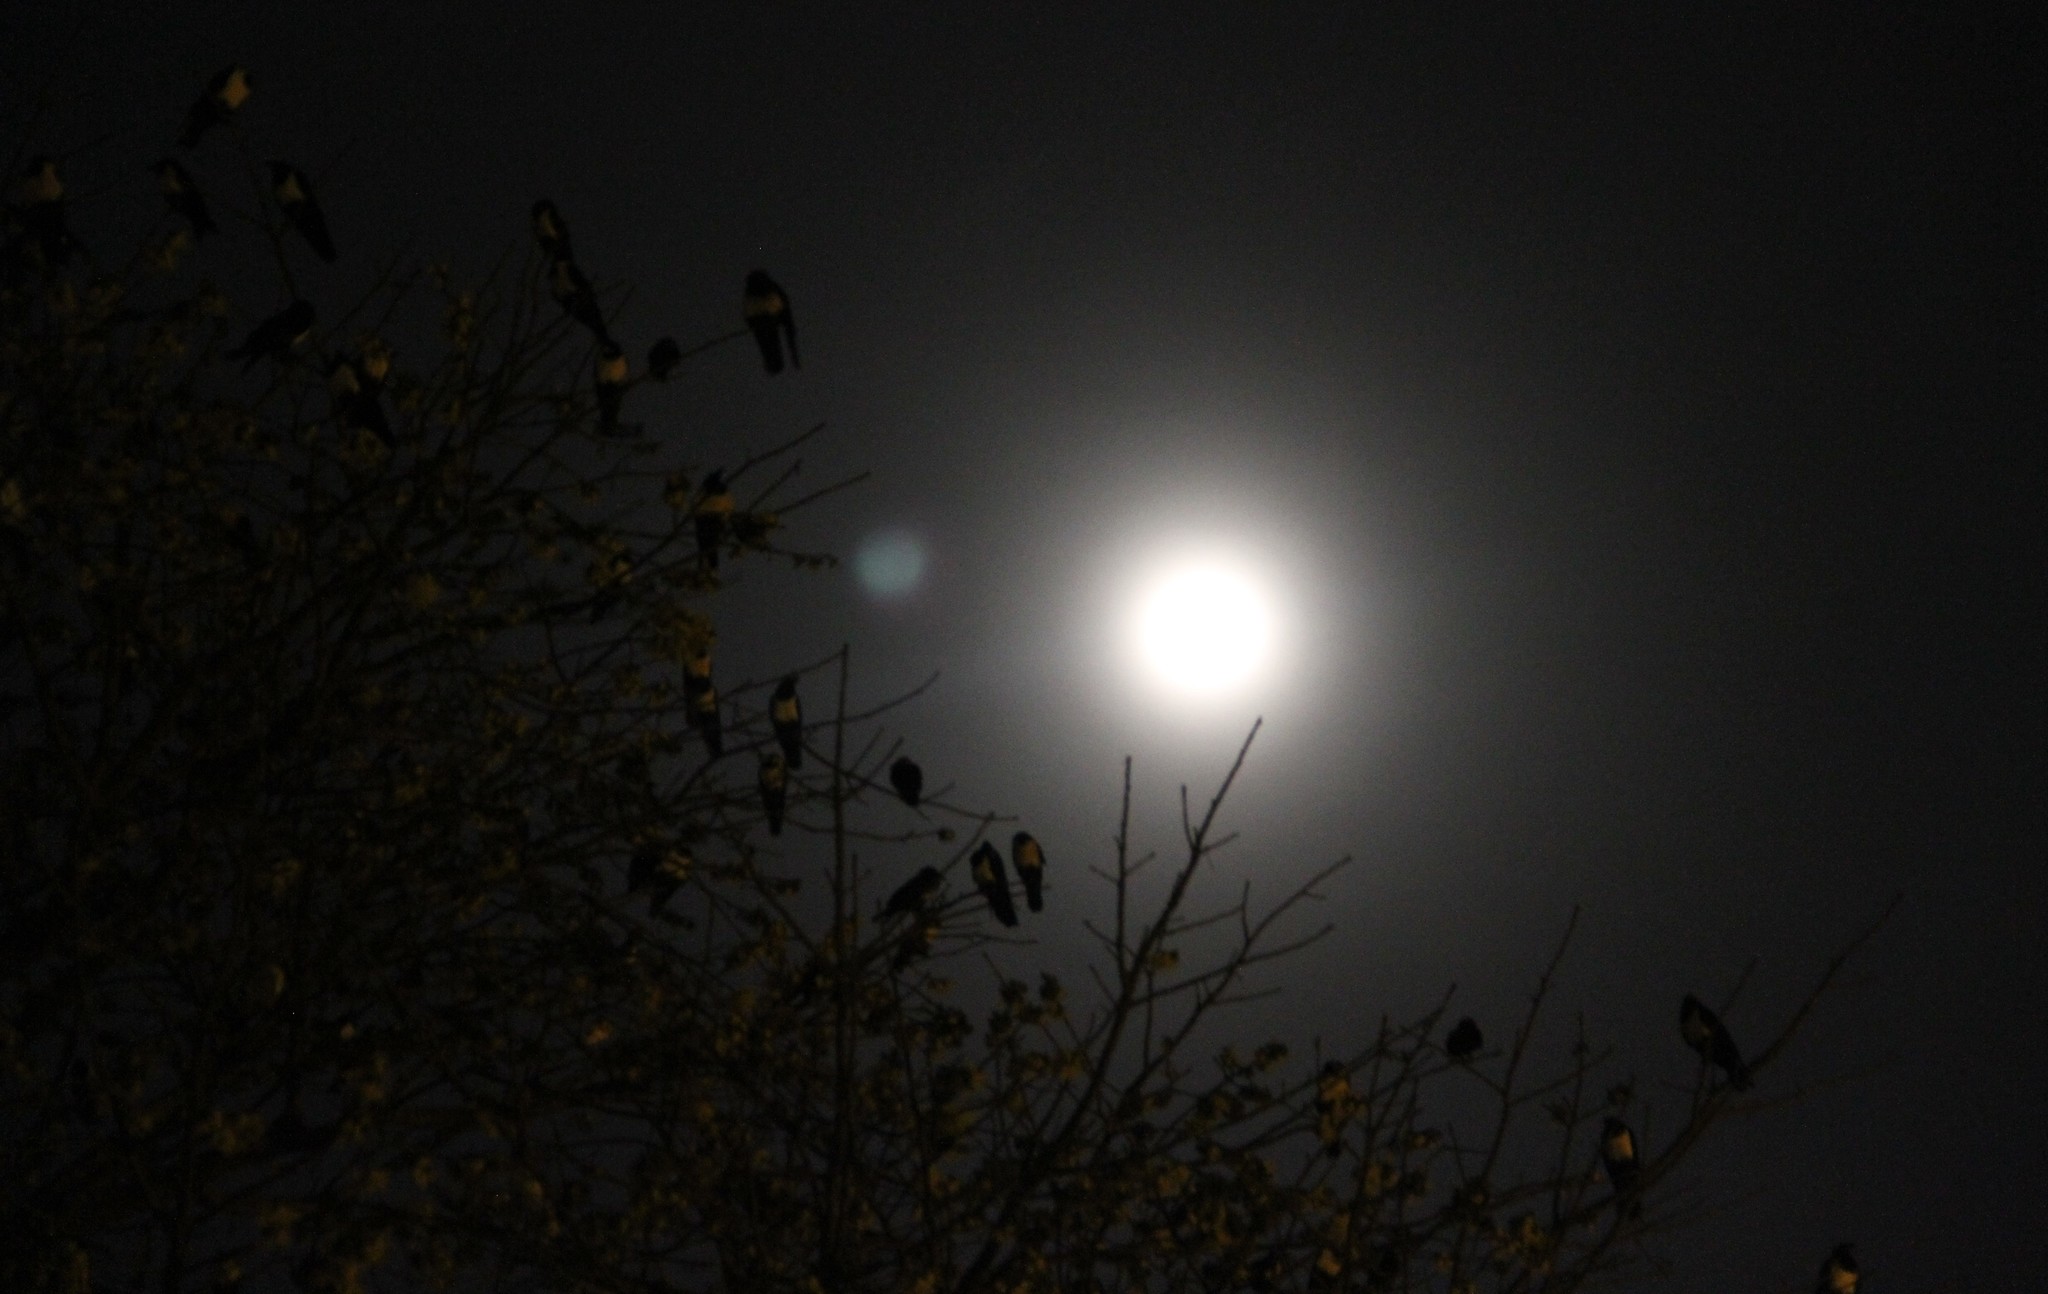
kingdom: Animalia
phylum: Chordata
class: Aves
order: Passeriformes
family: Corvidae
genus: Corvus
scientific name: Corvus albus
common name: Pied crow
